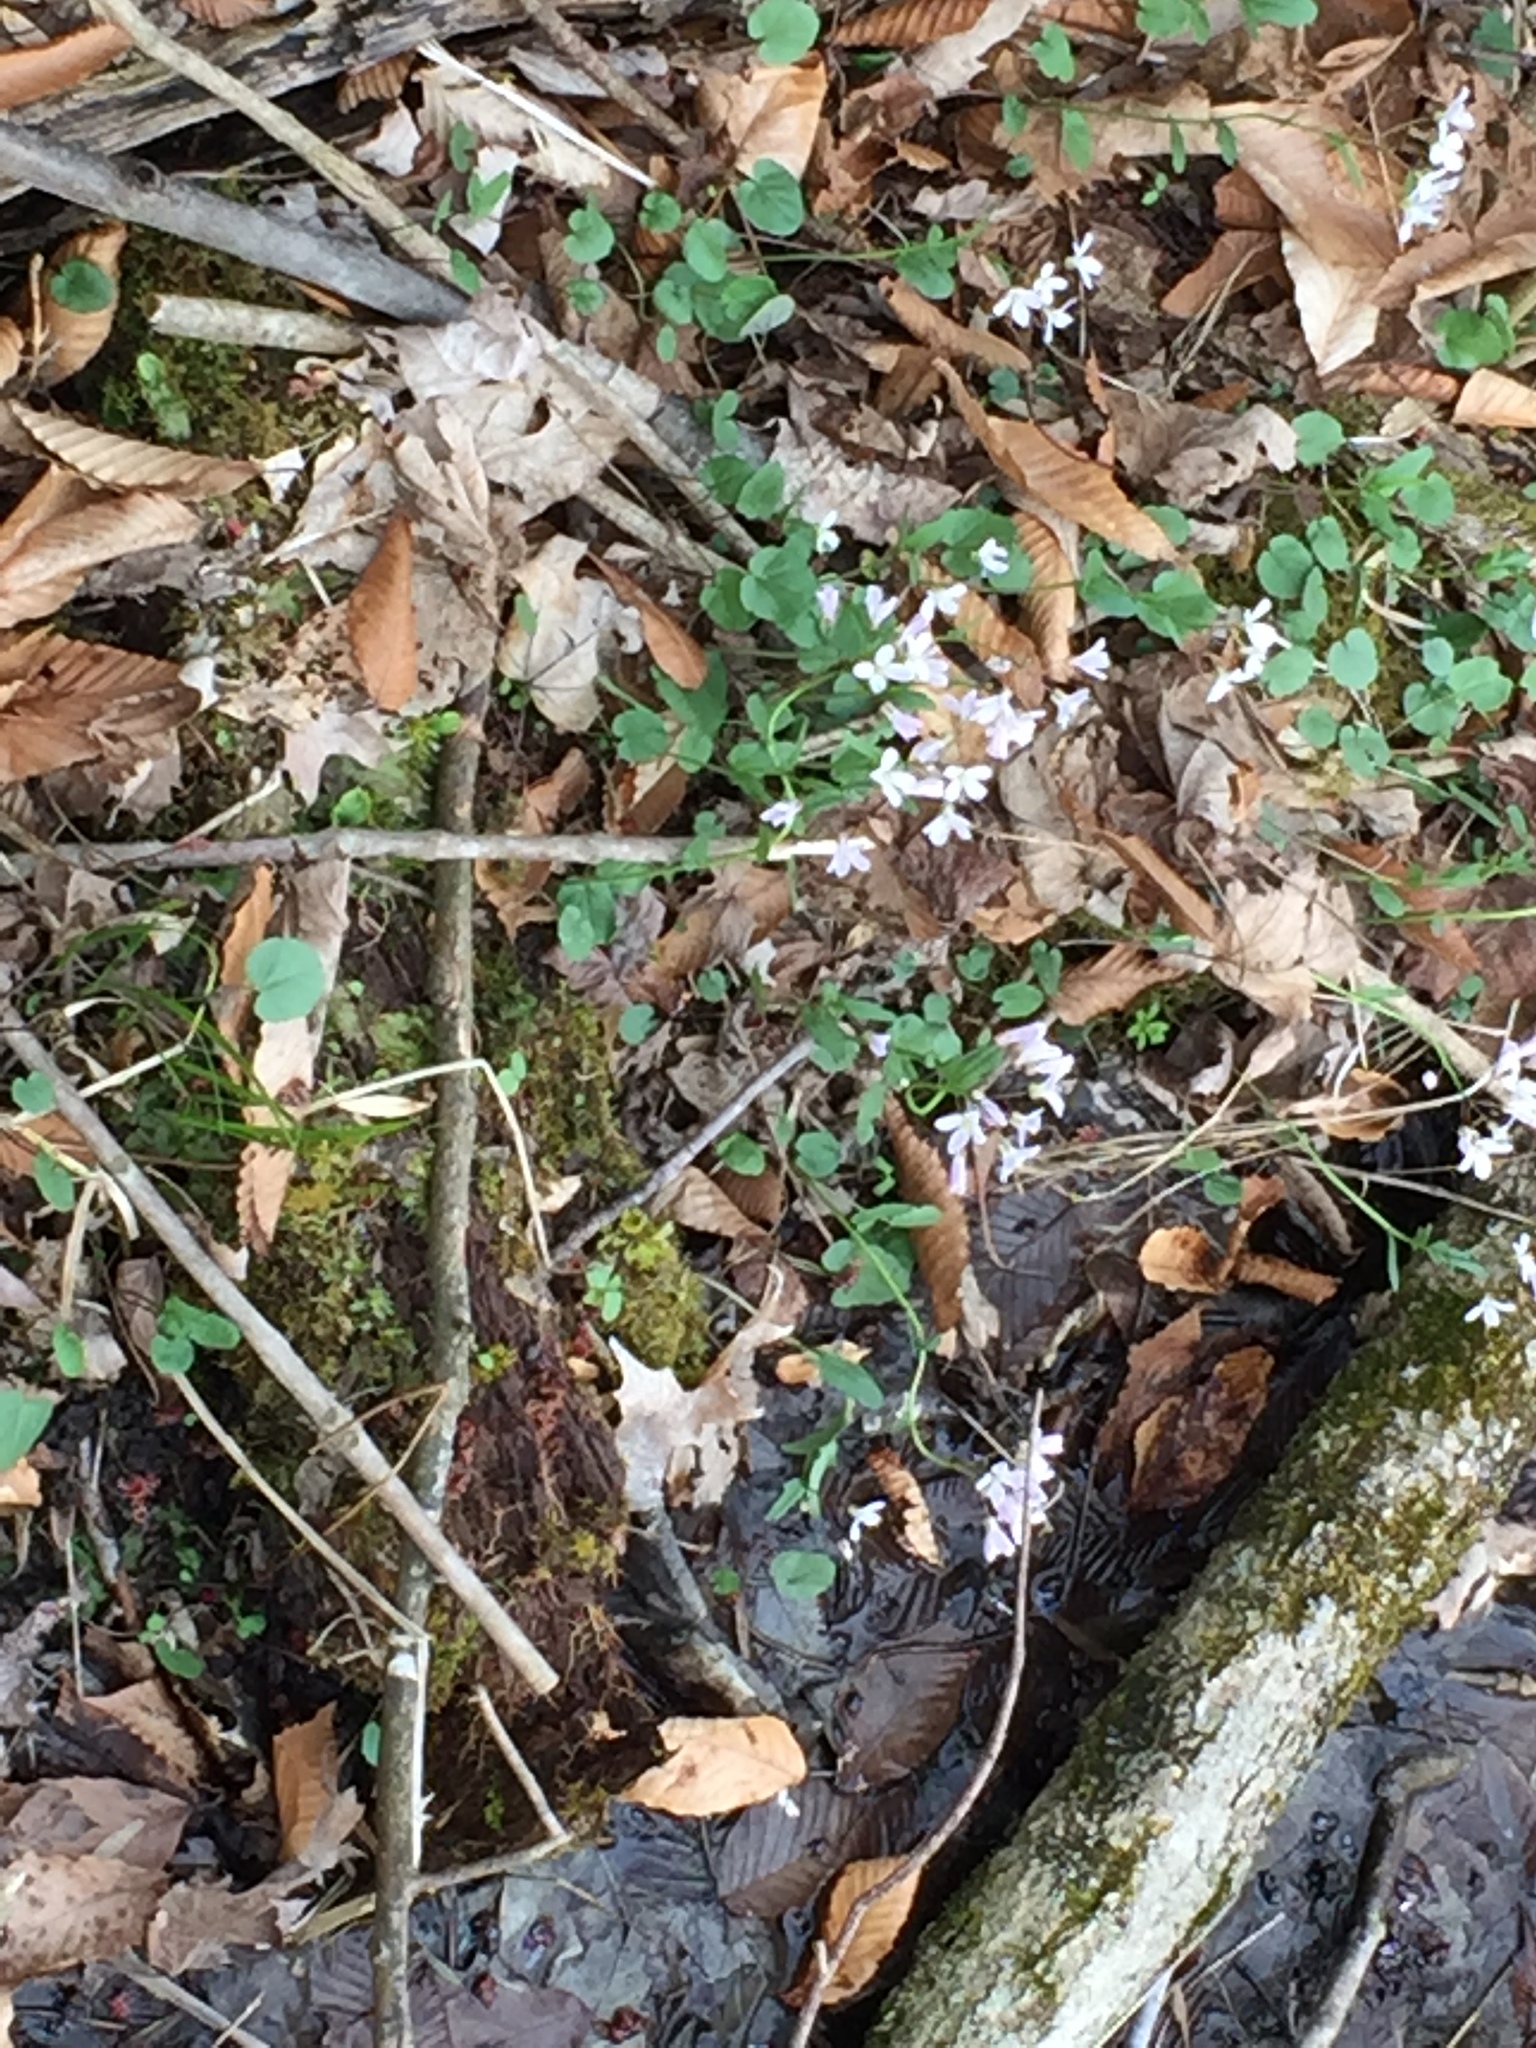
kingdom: Plantae
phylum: Tracheophyta
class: Magnoliopsida
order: Brassicales
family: Brassicaceae
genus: Cardamine
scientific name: Cardamine douglassii
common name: Purple cress
